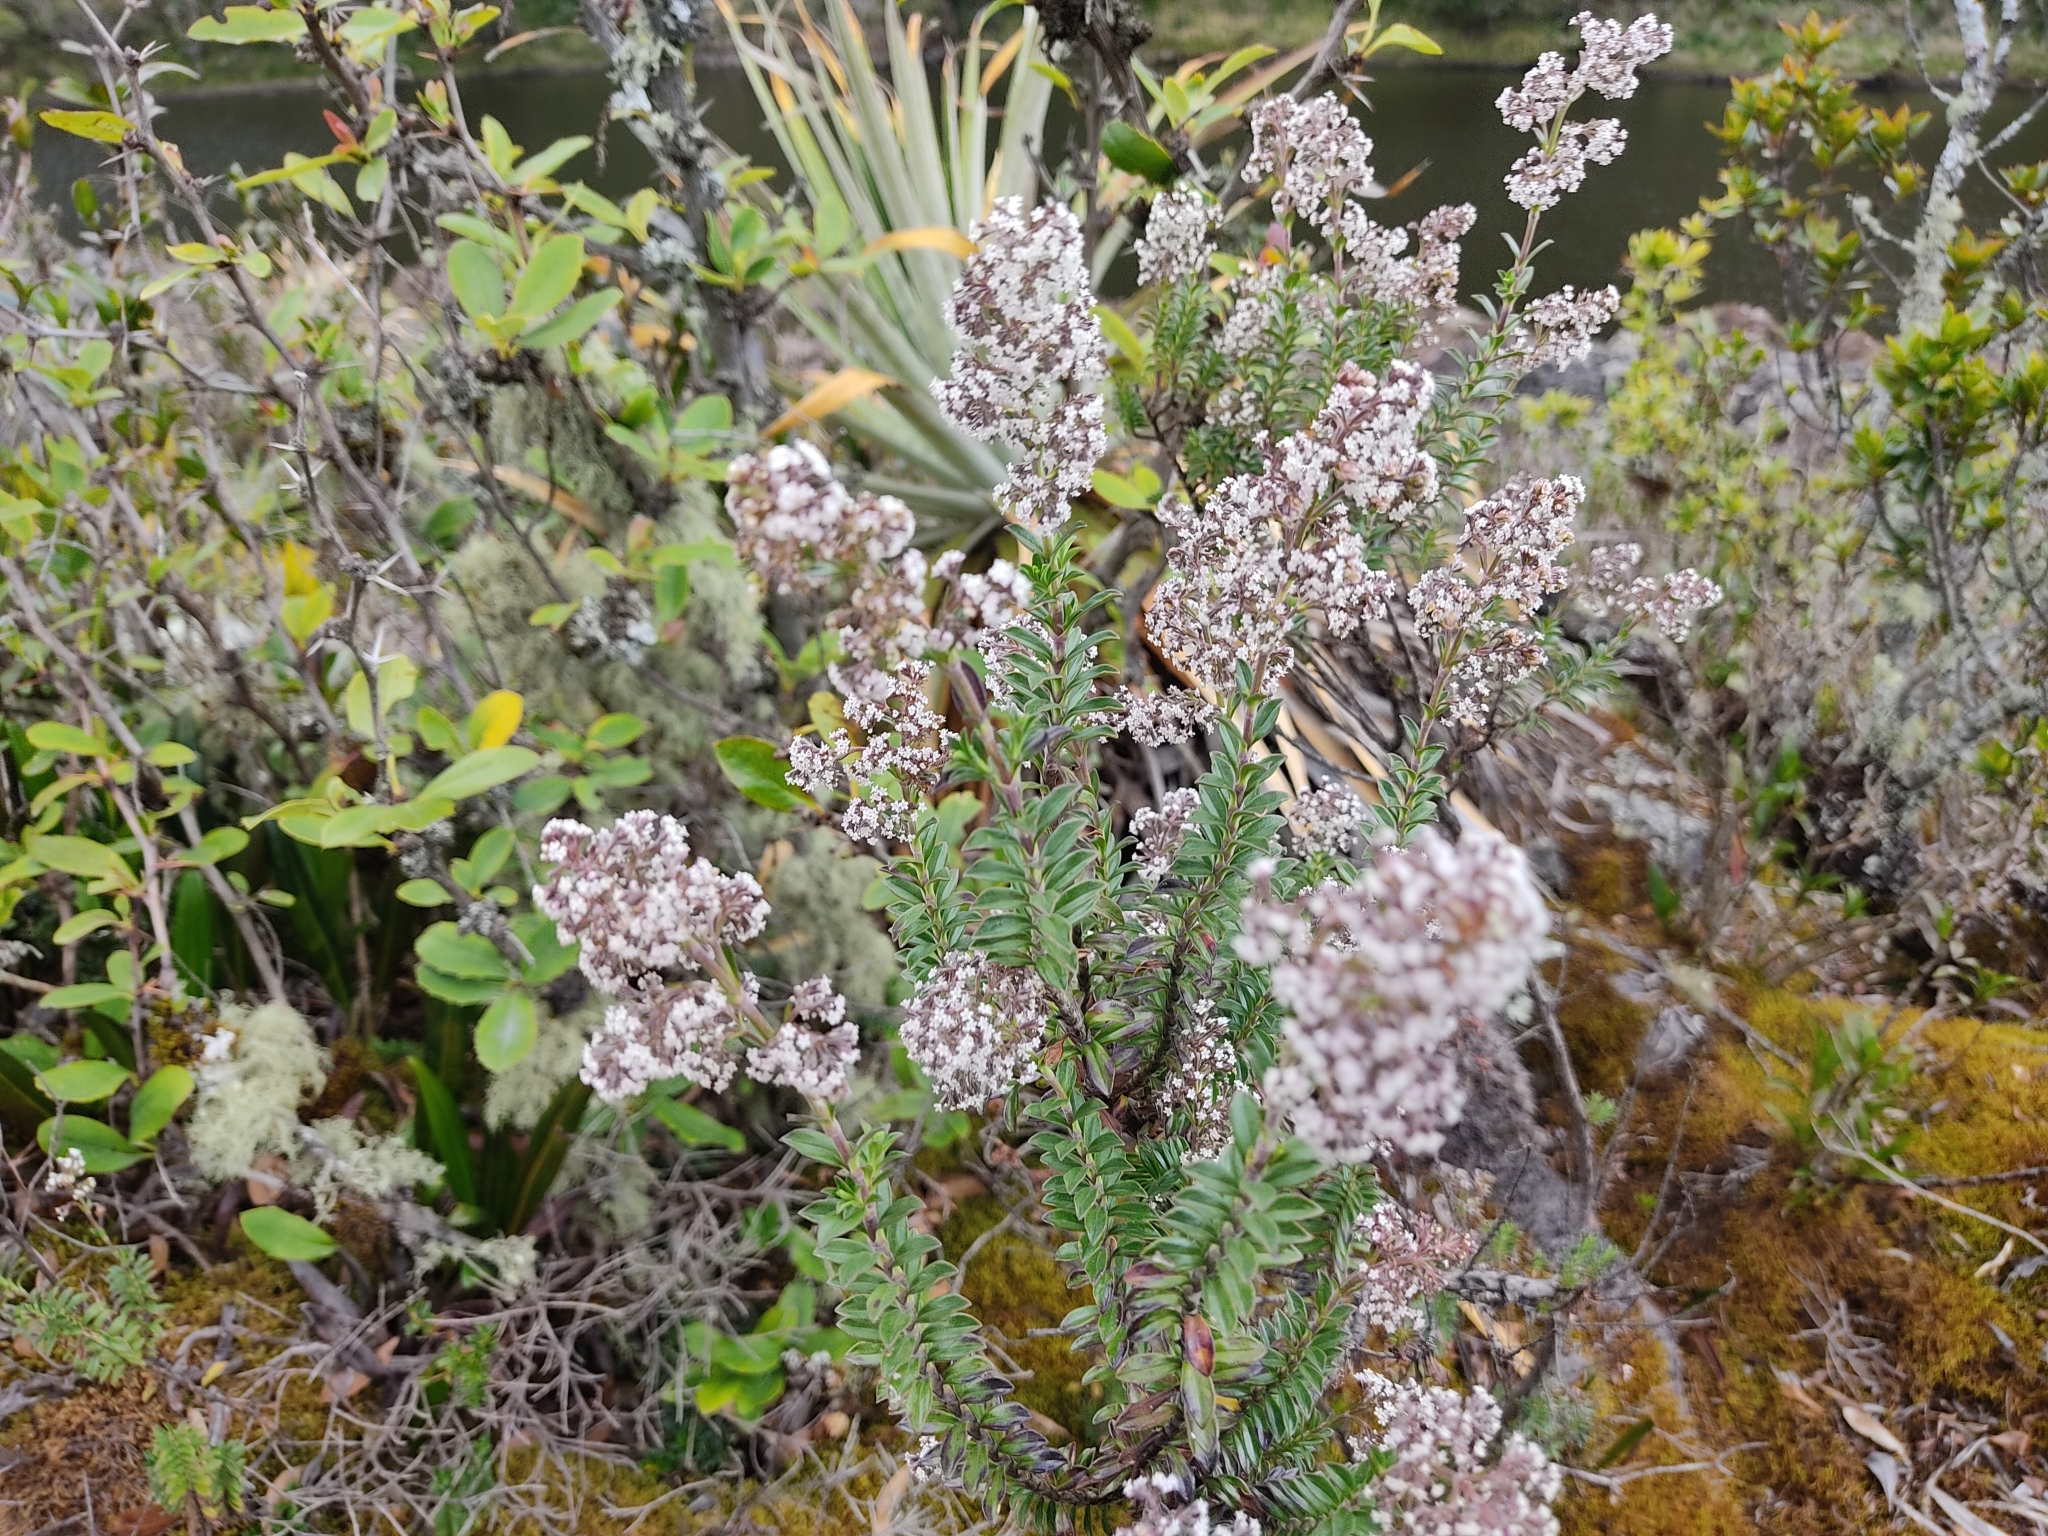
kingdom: Plantae
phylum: Tracheophyta
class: Magnoliopsida
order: Dipsacales
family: Caprifoliaceae
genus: Valeriana
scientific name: Valeriana microphylla
